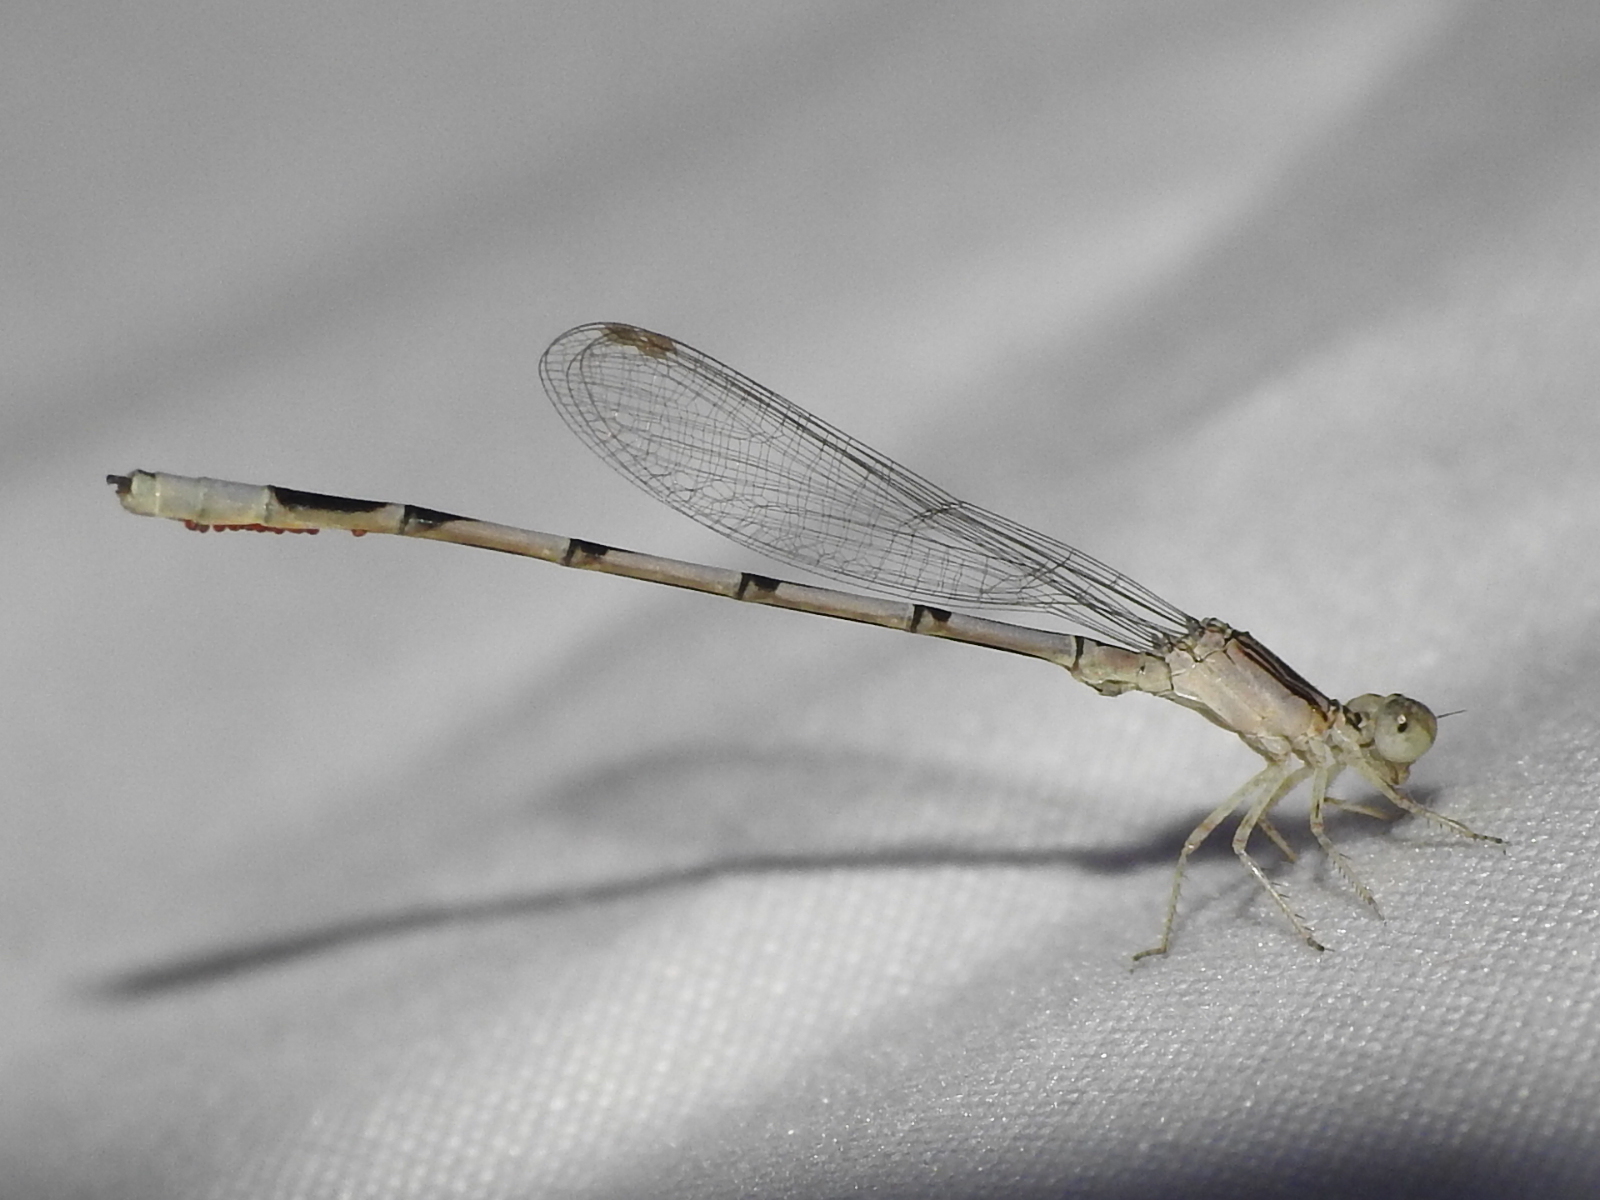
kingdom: Animalia
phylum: Arthropoda
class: Insecta
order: Odonata
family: Coenagrionidae
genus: Enallagma
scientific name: Enallagma basidens
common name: Double-striped bluet
